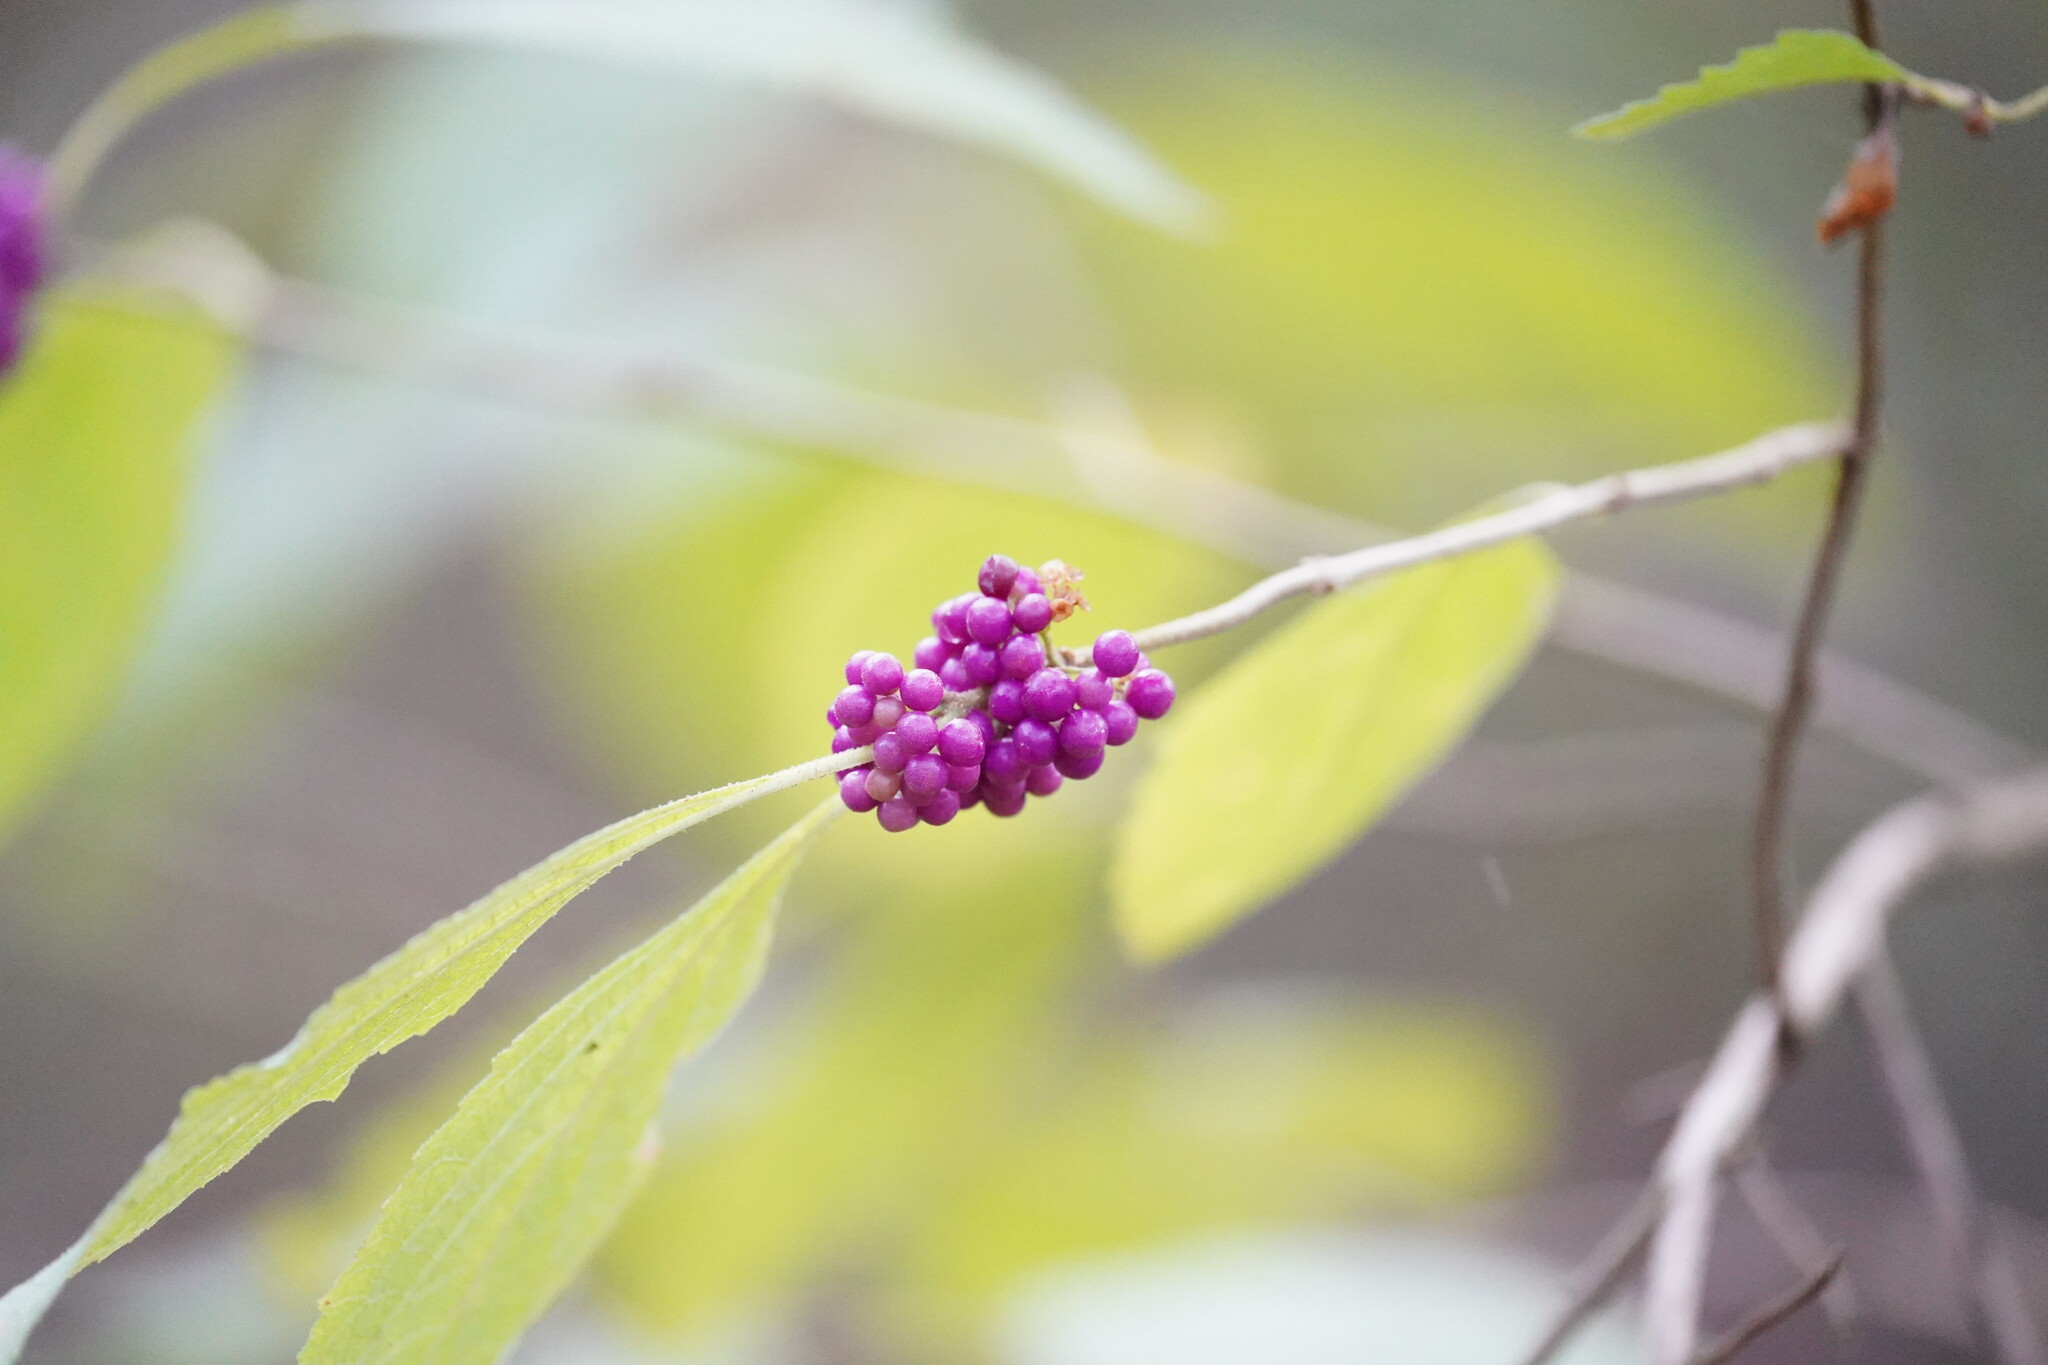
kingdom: Plantae
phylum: Tracheophyta
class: Magnoliopsida
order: Lamiales
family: Lamiaceae
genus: Callicarpa
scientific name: Callicarpa americana
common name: American beautyberry
